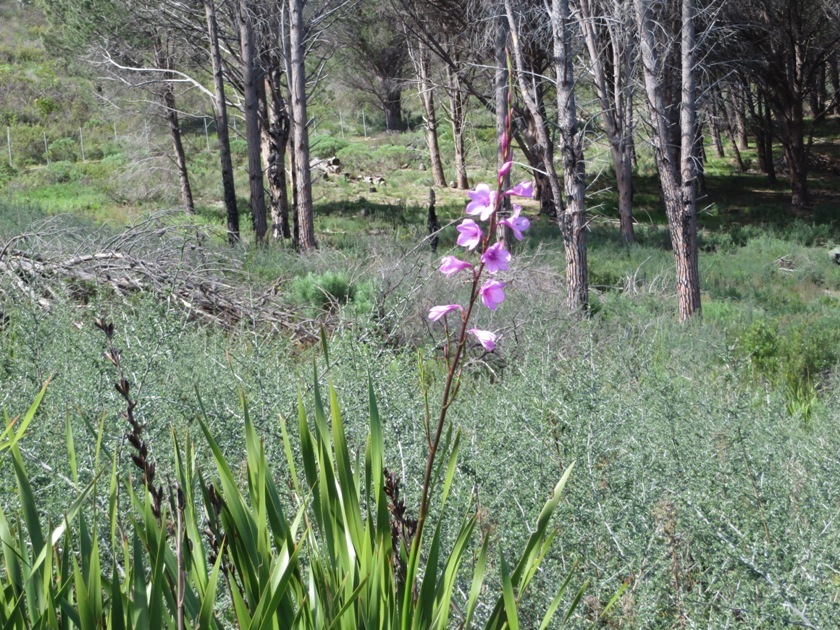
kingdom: Plantae
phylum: Tracheophyta
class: Liliopsida
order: Asparagales
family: Iridaceae
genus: Watsonia
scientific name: Watsonia borbonica
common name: Bugle-lily
